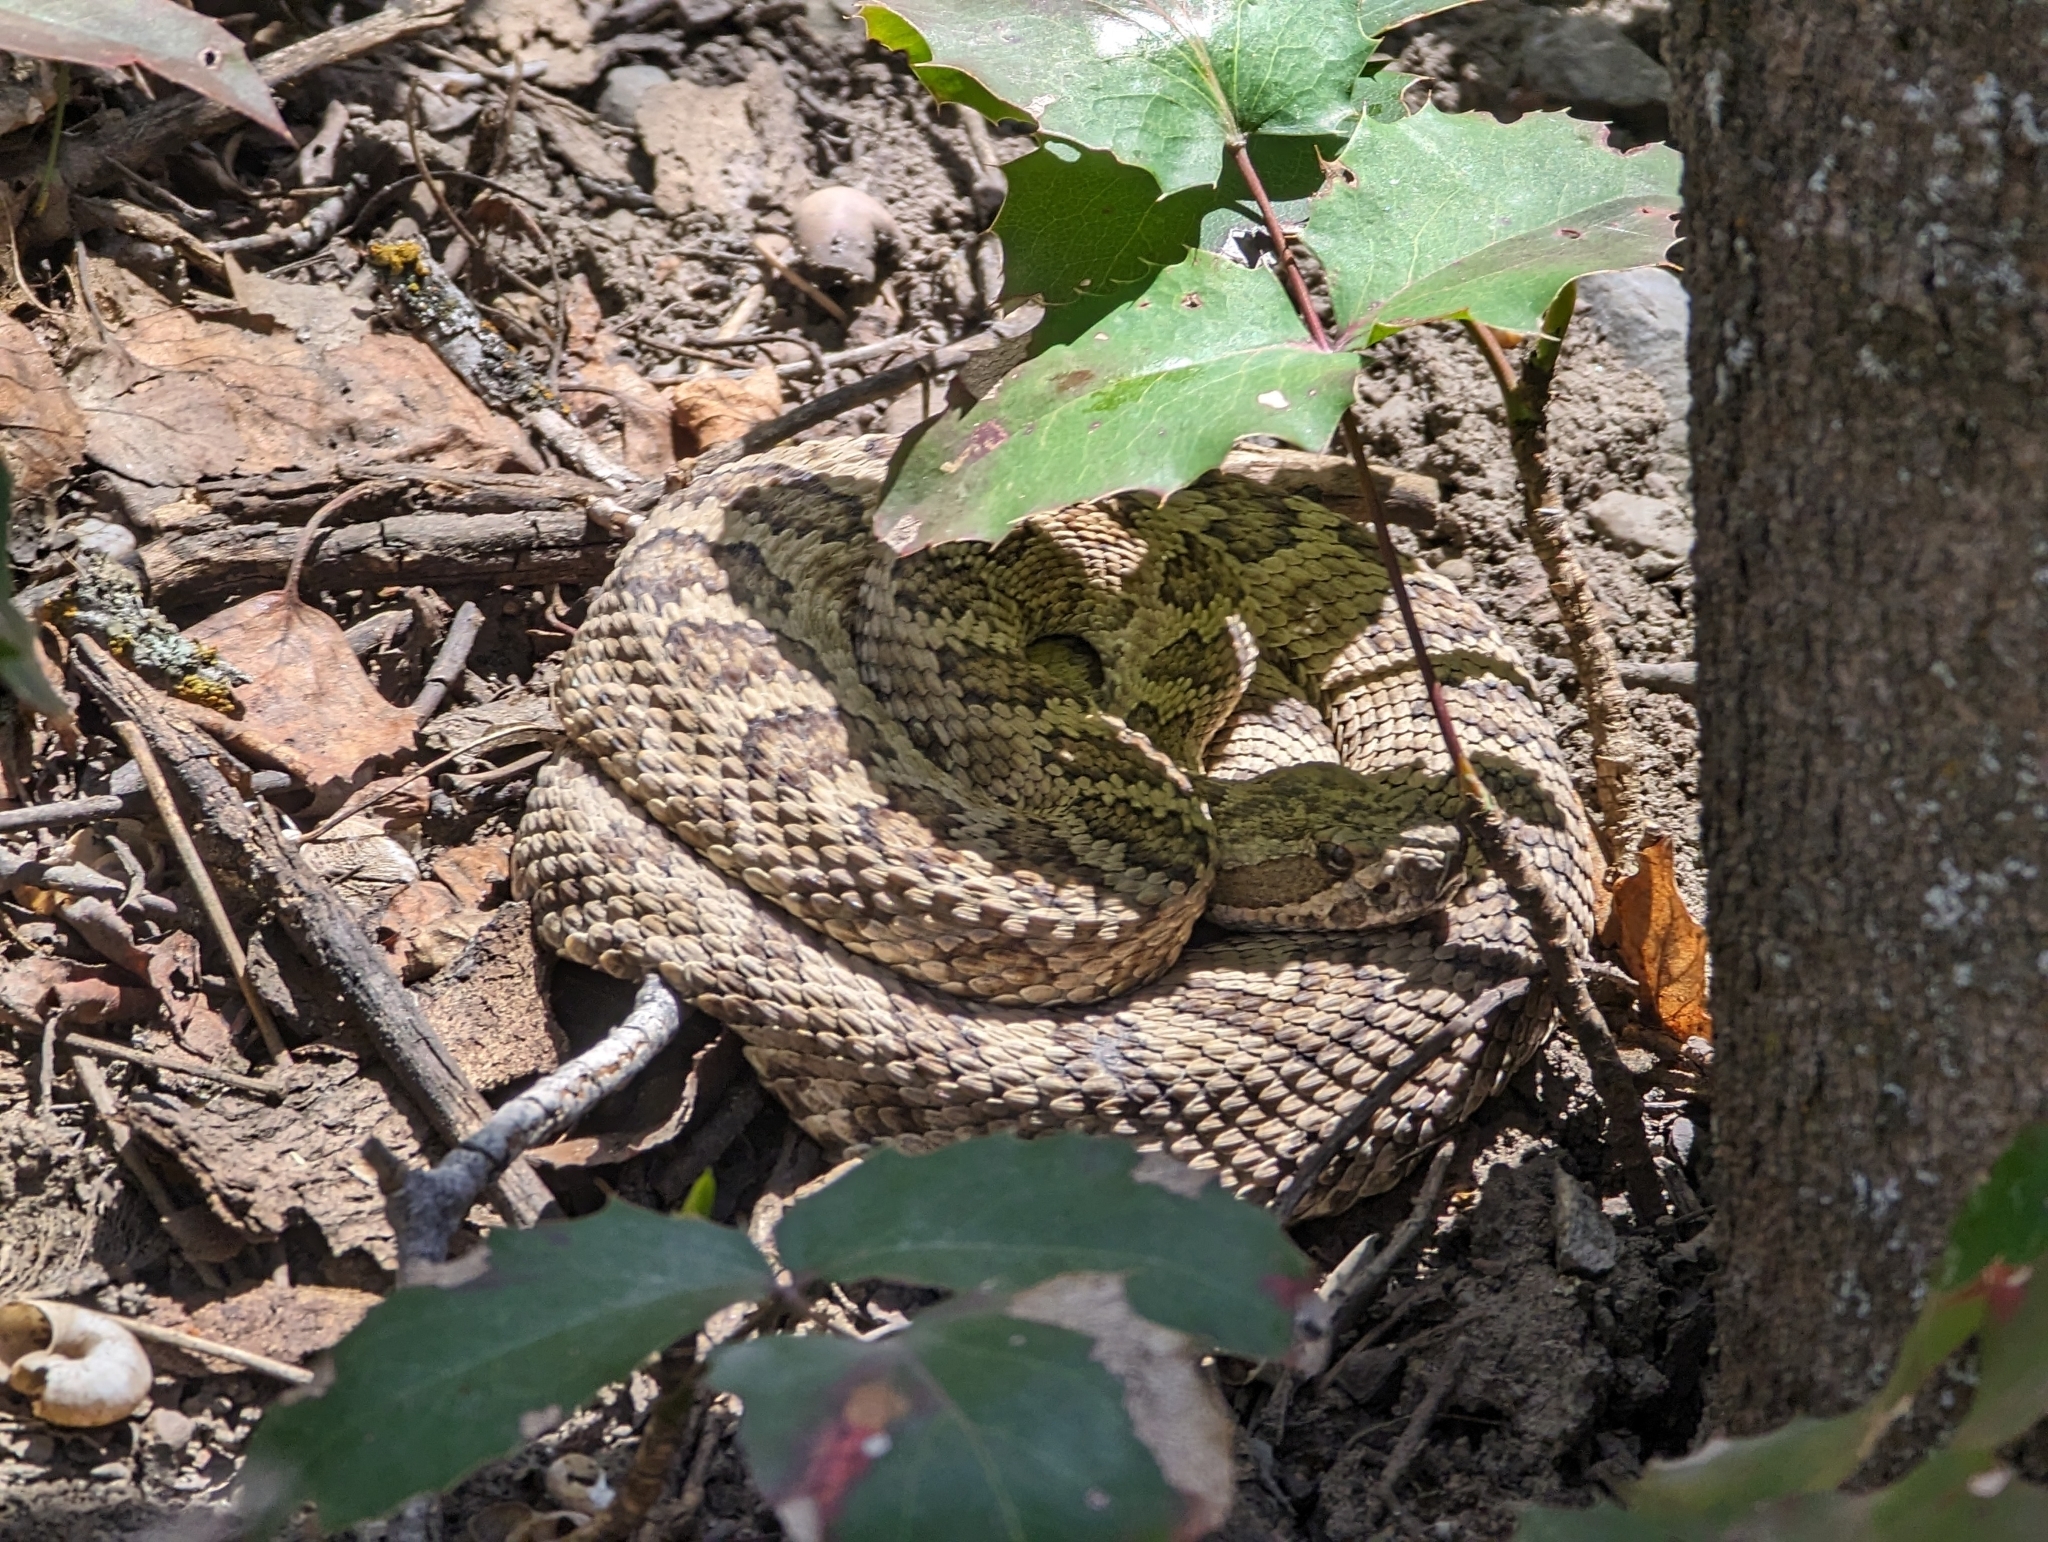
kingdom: Animalia
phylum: Chordata
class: Squamata
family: Viperidae
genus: Crotalus
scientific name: Crotalus oreganus
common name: Abyssus
